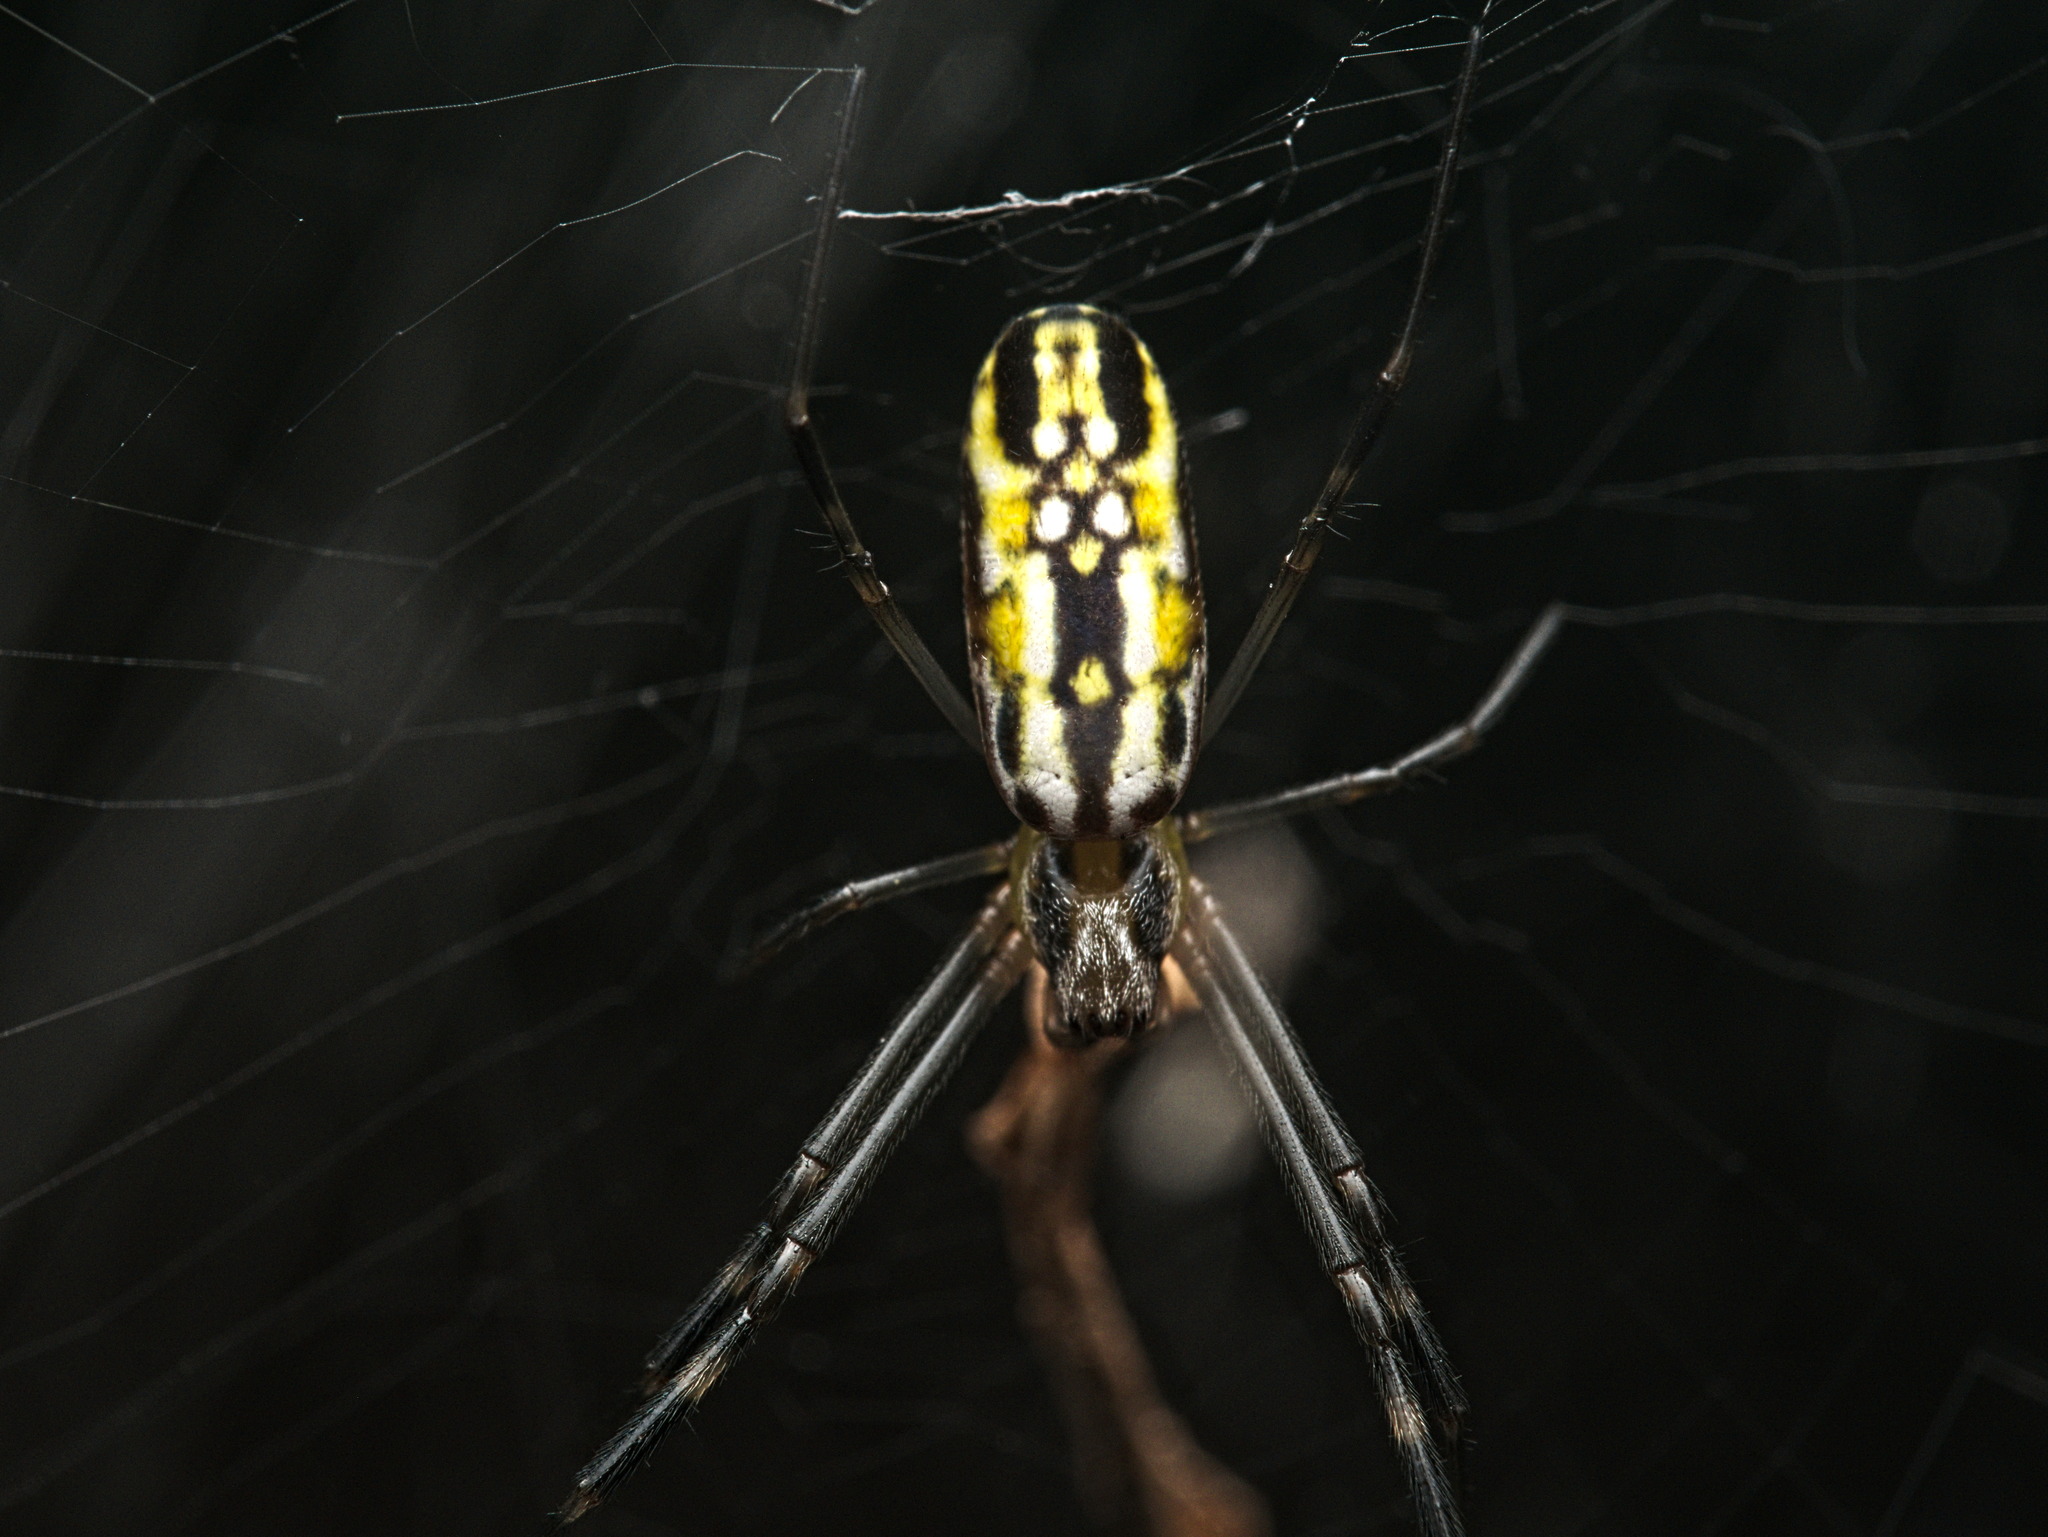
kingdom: Animalia
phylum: Arthropoda
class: Arachnida
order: Araneae
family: Araneidae
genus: Trichonephila
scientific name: Trichonephila clavipes
